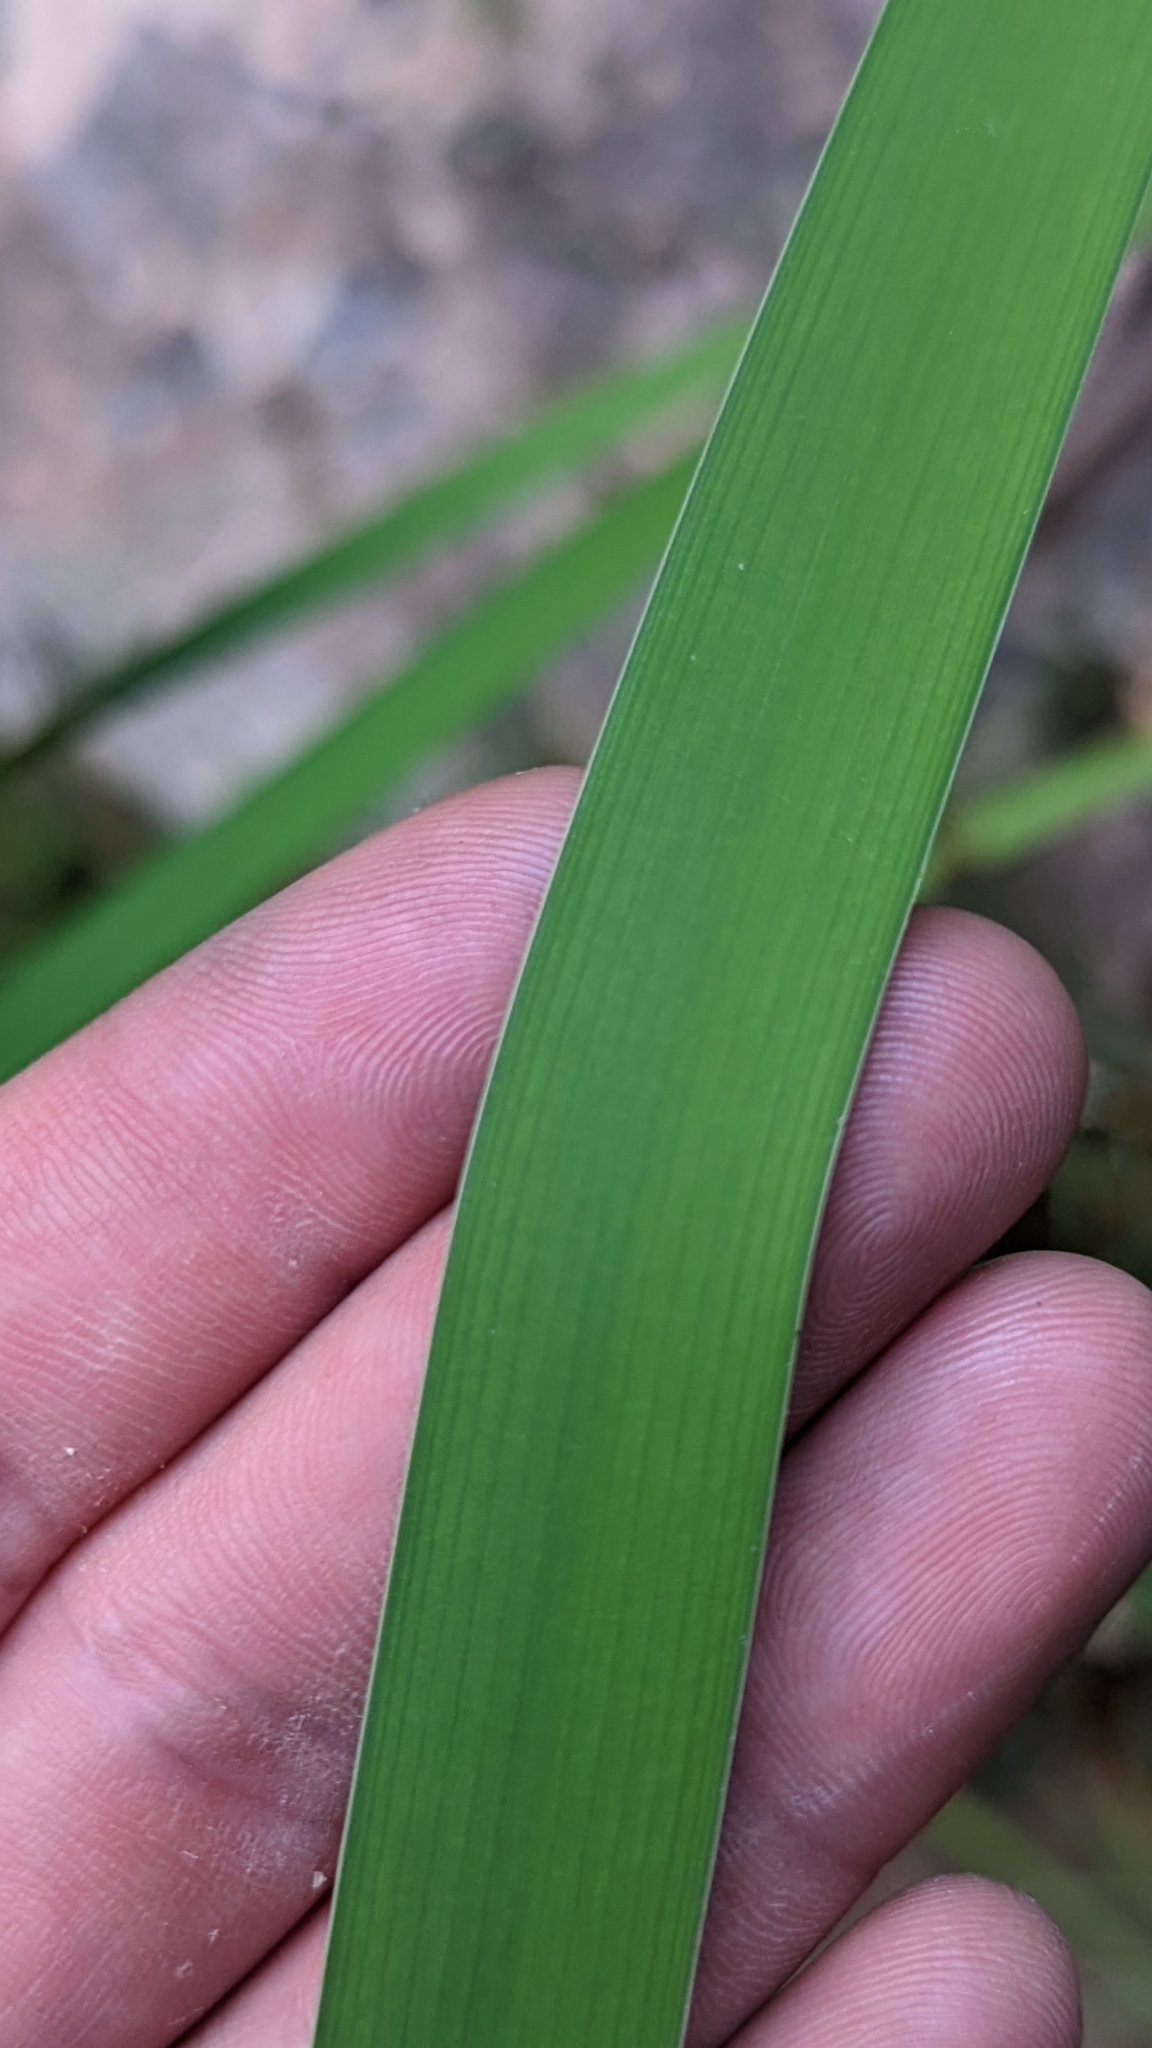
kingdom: Plantae
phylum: Tracheophyta
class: Liliopsida
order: Poales
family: Typhaceae
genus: Typha
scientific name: Typha latifolia
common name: Broadleaf cattail
